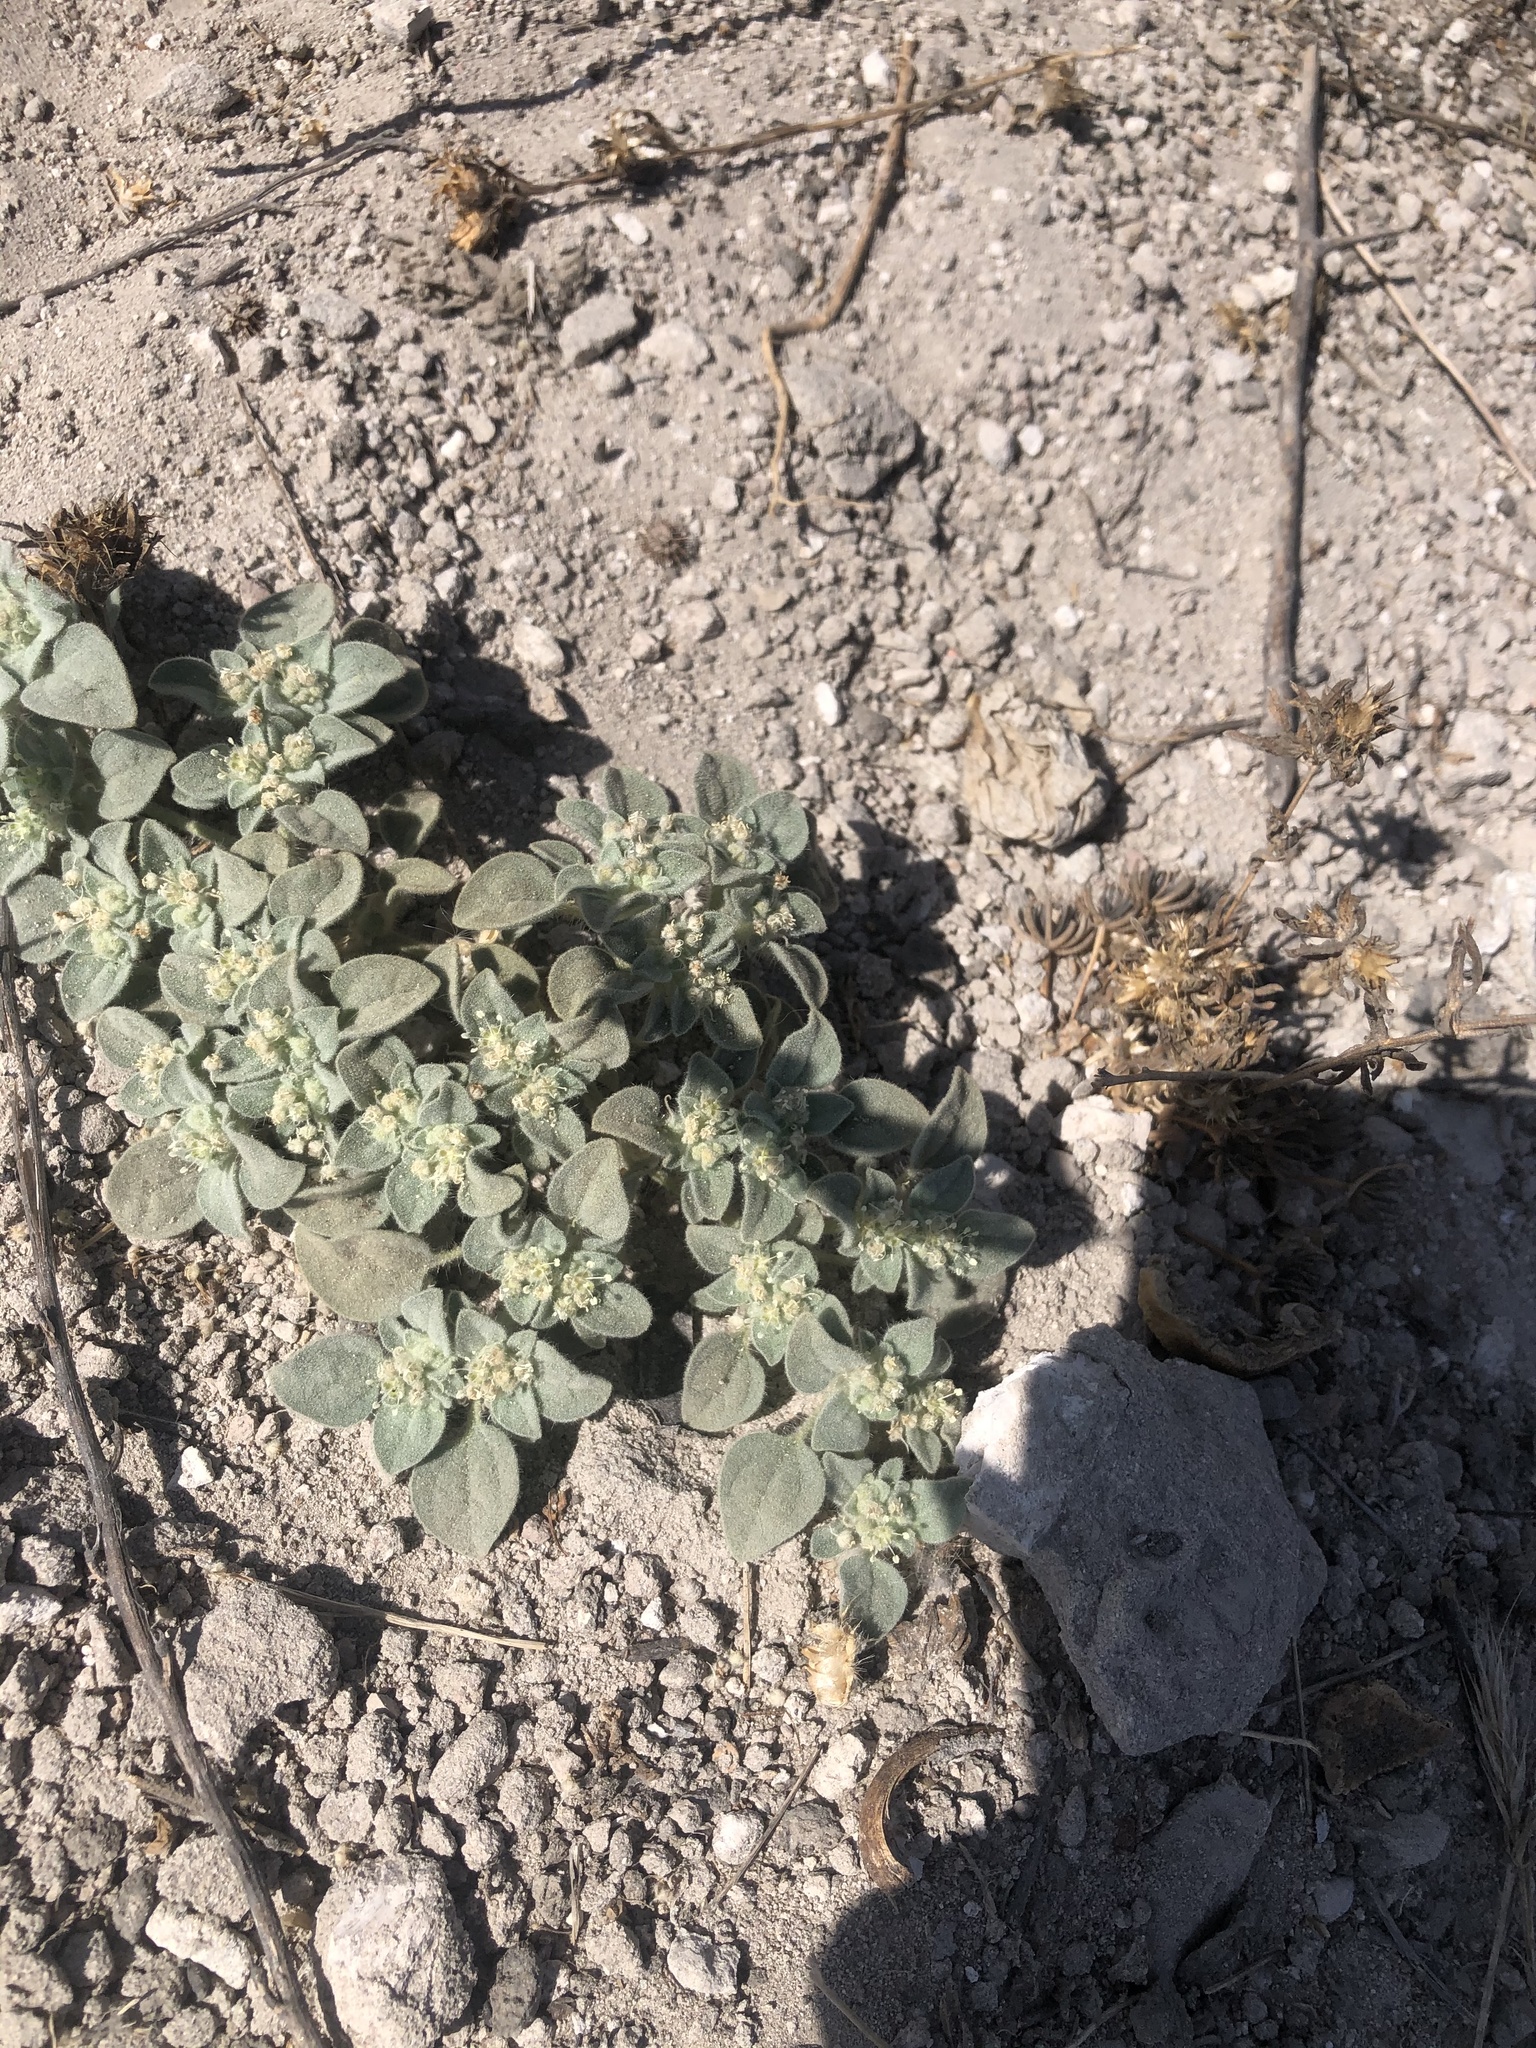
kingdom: Plantae
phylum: Tracheophyta
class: Magnoliopsida
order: Malpighiales
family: Euphorbiaceae
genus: Croton
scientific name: Croton setiger
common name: Dove weed
